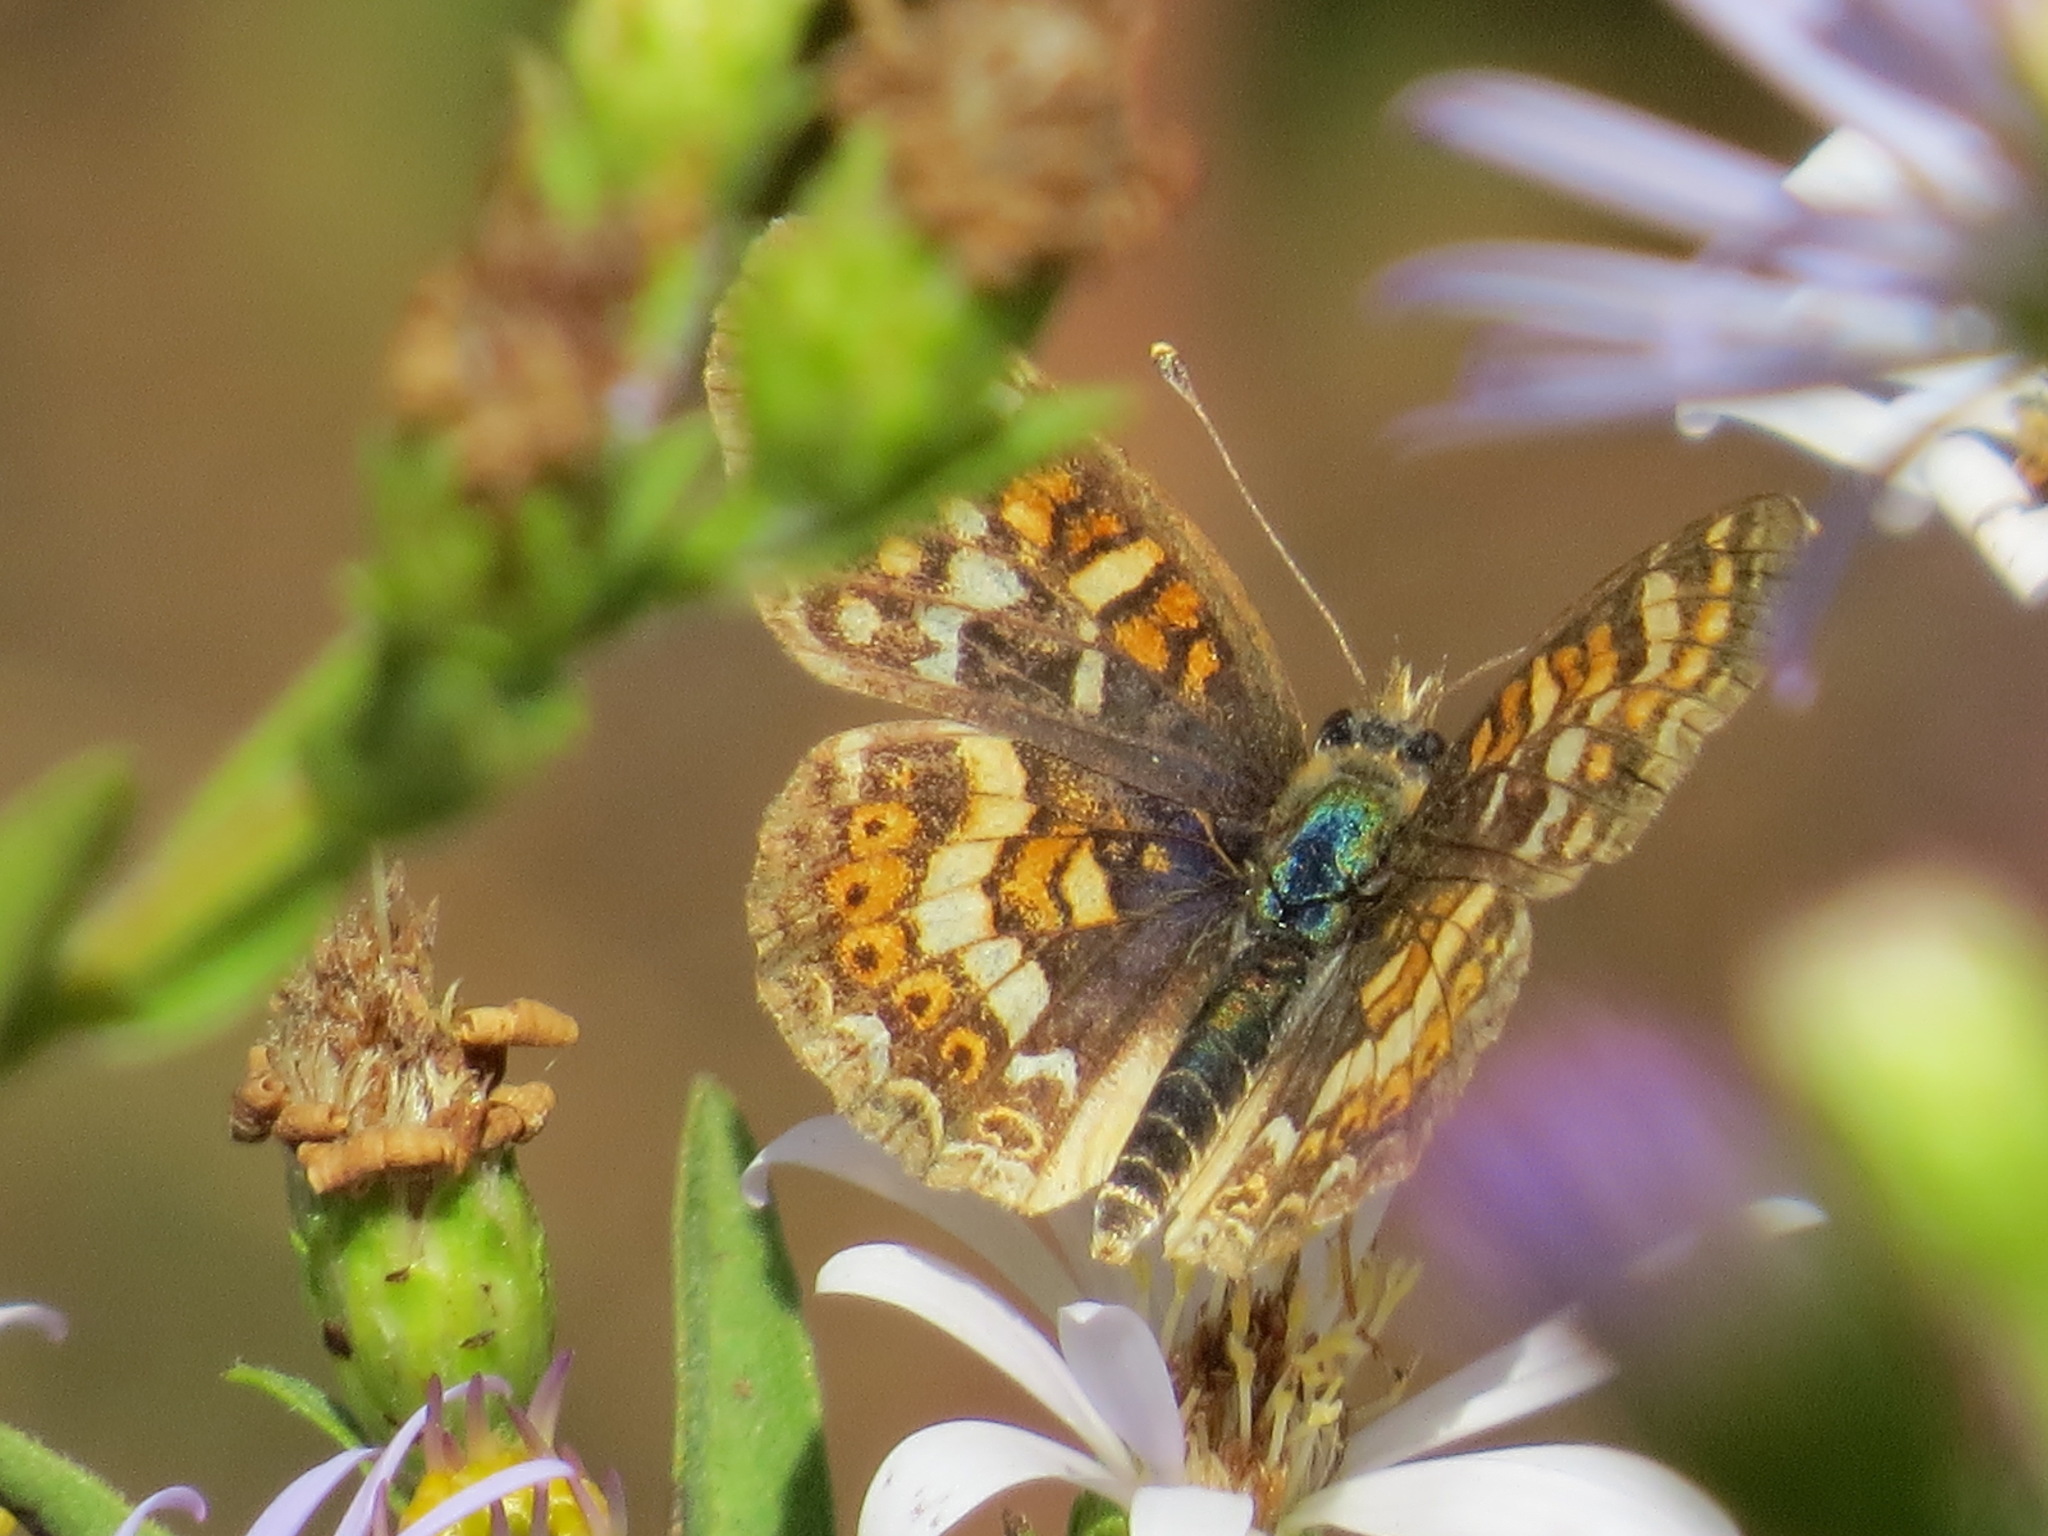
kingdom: Animalia
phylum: Arthropoda
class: Insecta
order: Lepidoptera
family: Nymphalidae
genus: Phyciodes
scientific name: Phyciodes tharos
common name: Pearl crescent
